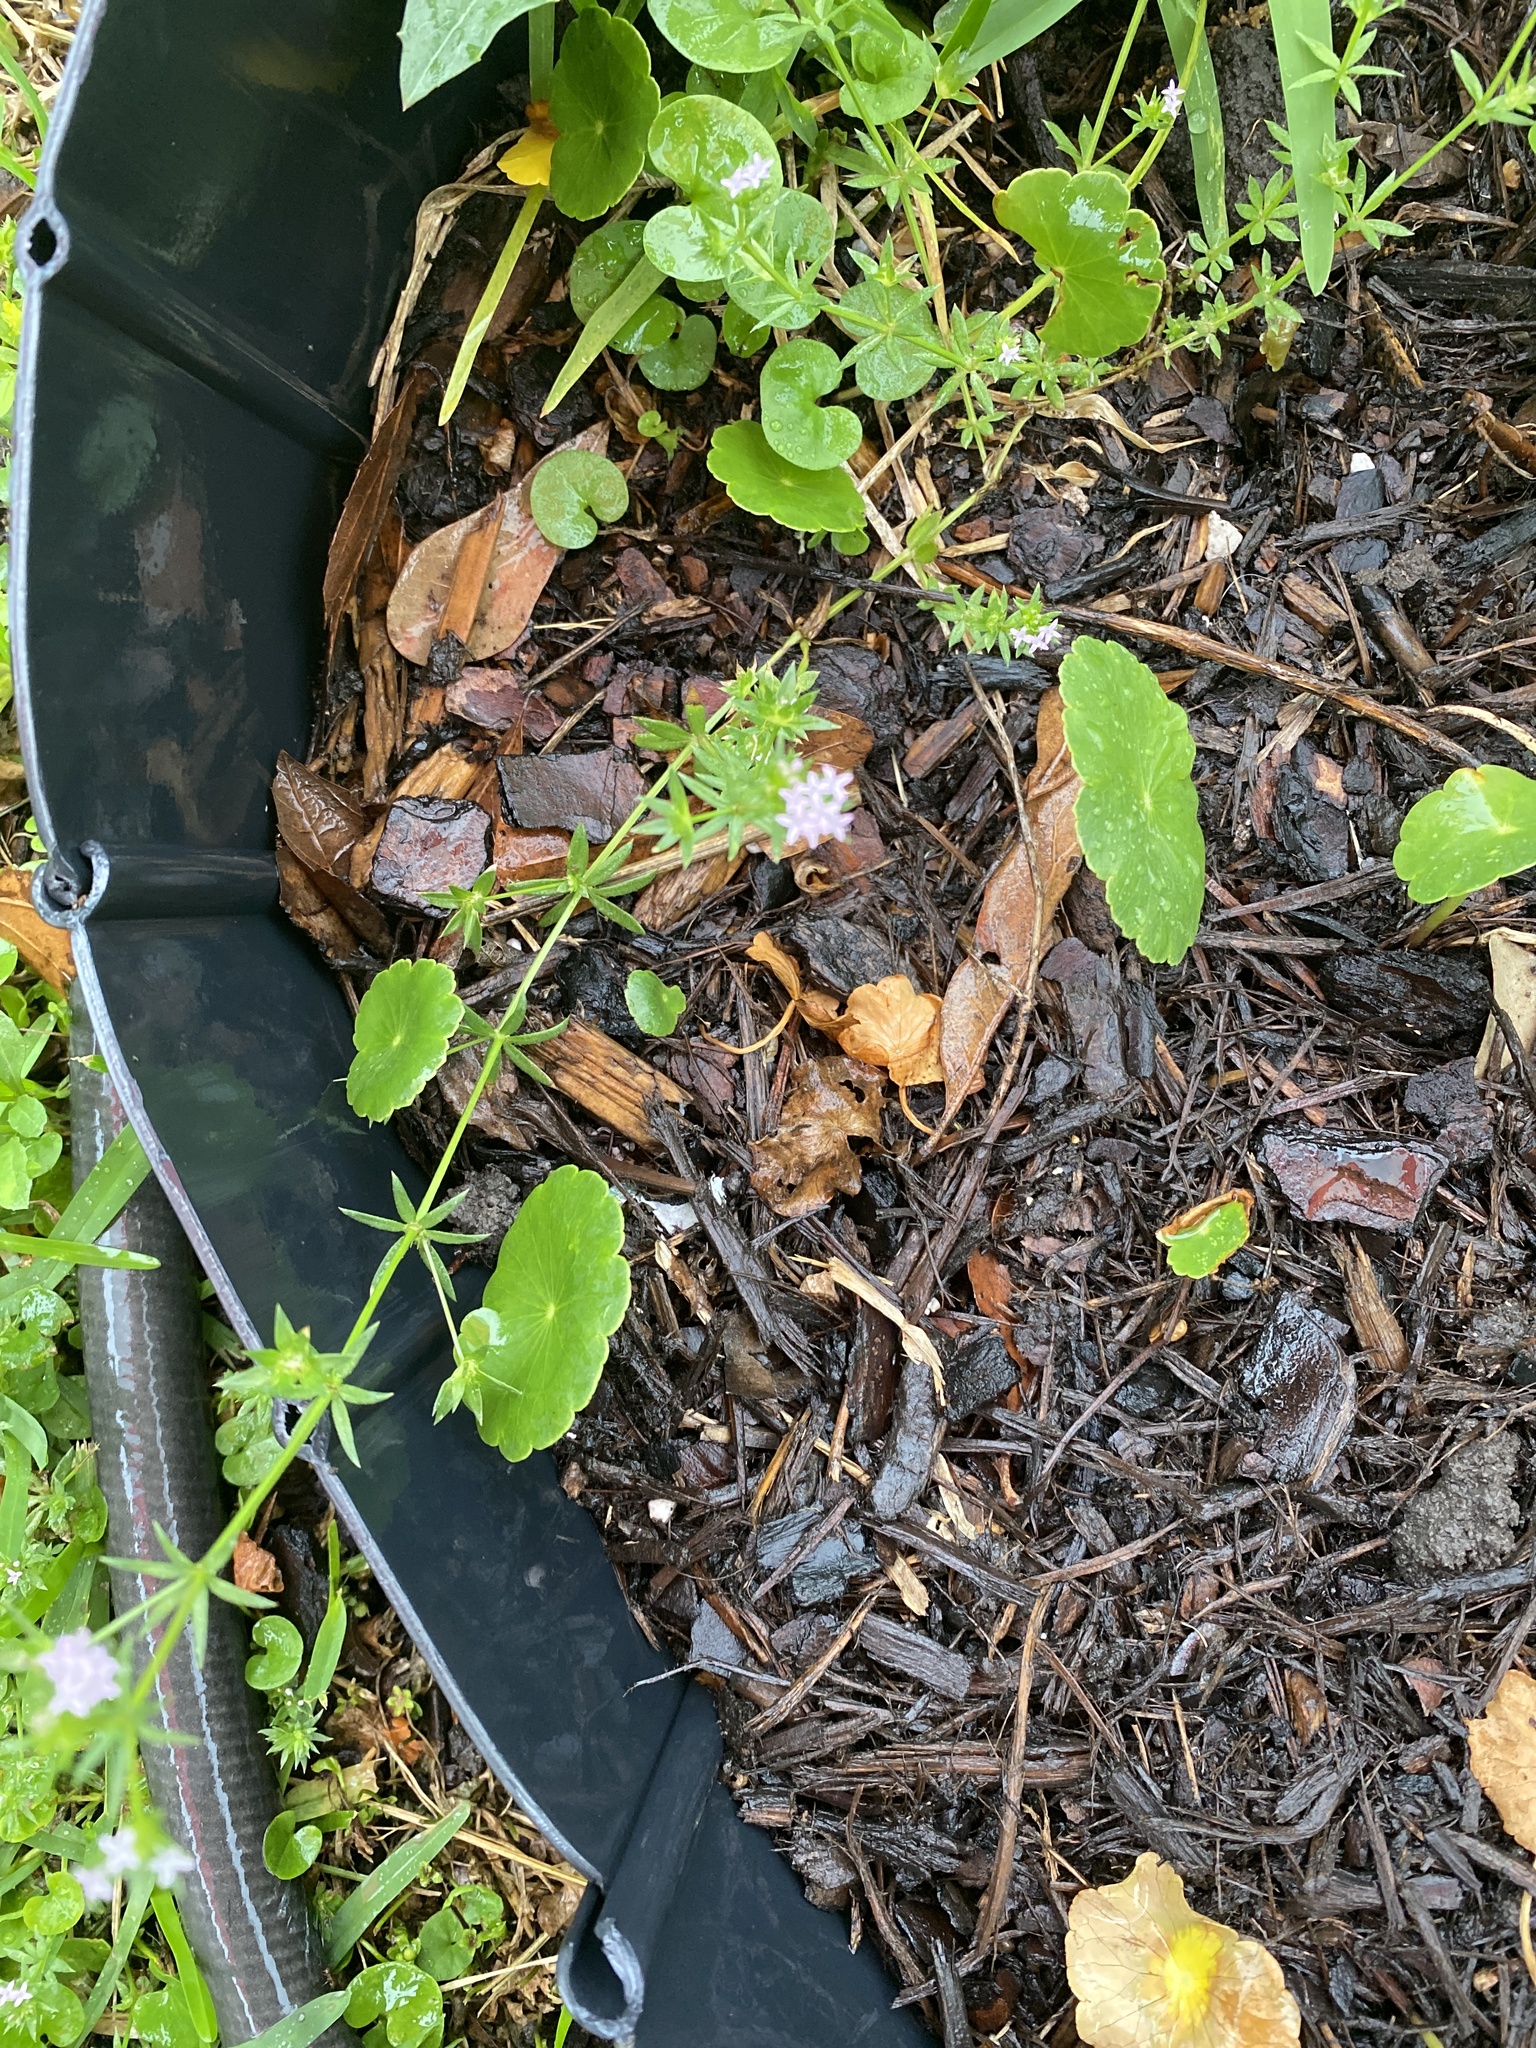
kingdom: Plantae
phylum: Tracheophyta
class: Magnoliopsida
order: Gentianales
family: Rubiaceae
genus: Sherardia
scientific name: Sherardia arvensis
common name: Field madder
